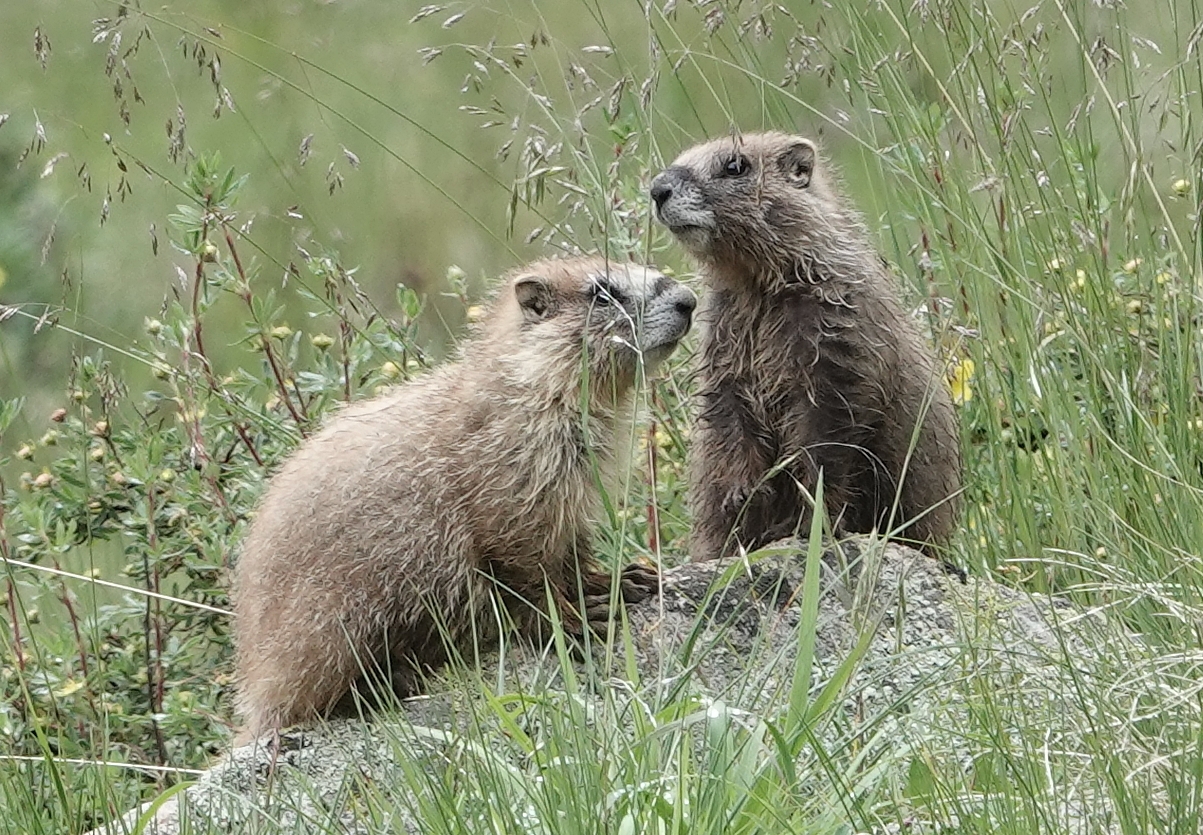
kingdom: Animalia
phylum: Chordata
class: Mammalia
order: Rodentia
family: Sciuridae
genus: Marmota
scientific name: Marmota flaviventris
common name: Yellow-bellied marmot
